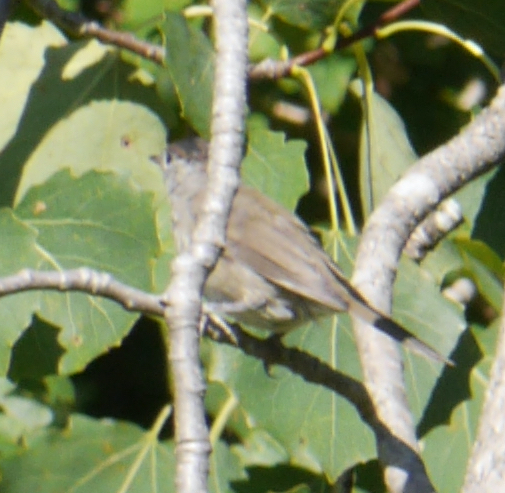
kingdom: Animalia
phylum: Chordata
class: Aves
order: Passeriformes
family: Sylviidae
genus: Sylvia
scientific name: Sylvia atricapilla
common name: Eurasian blackcap
